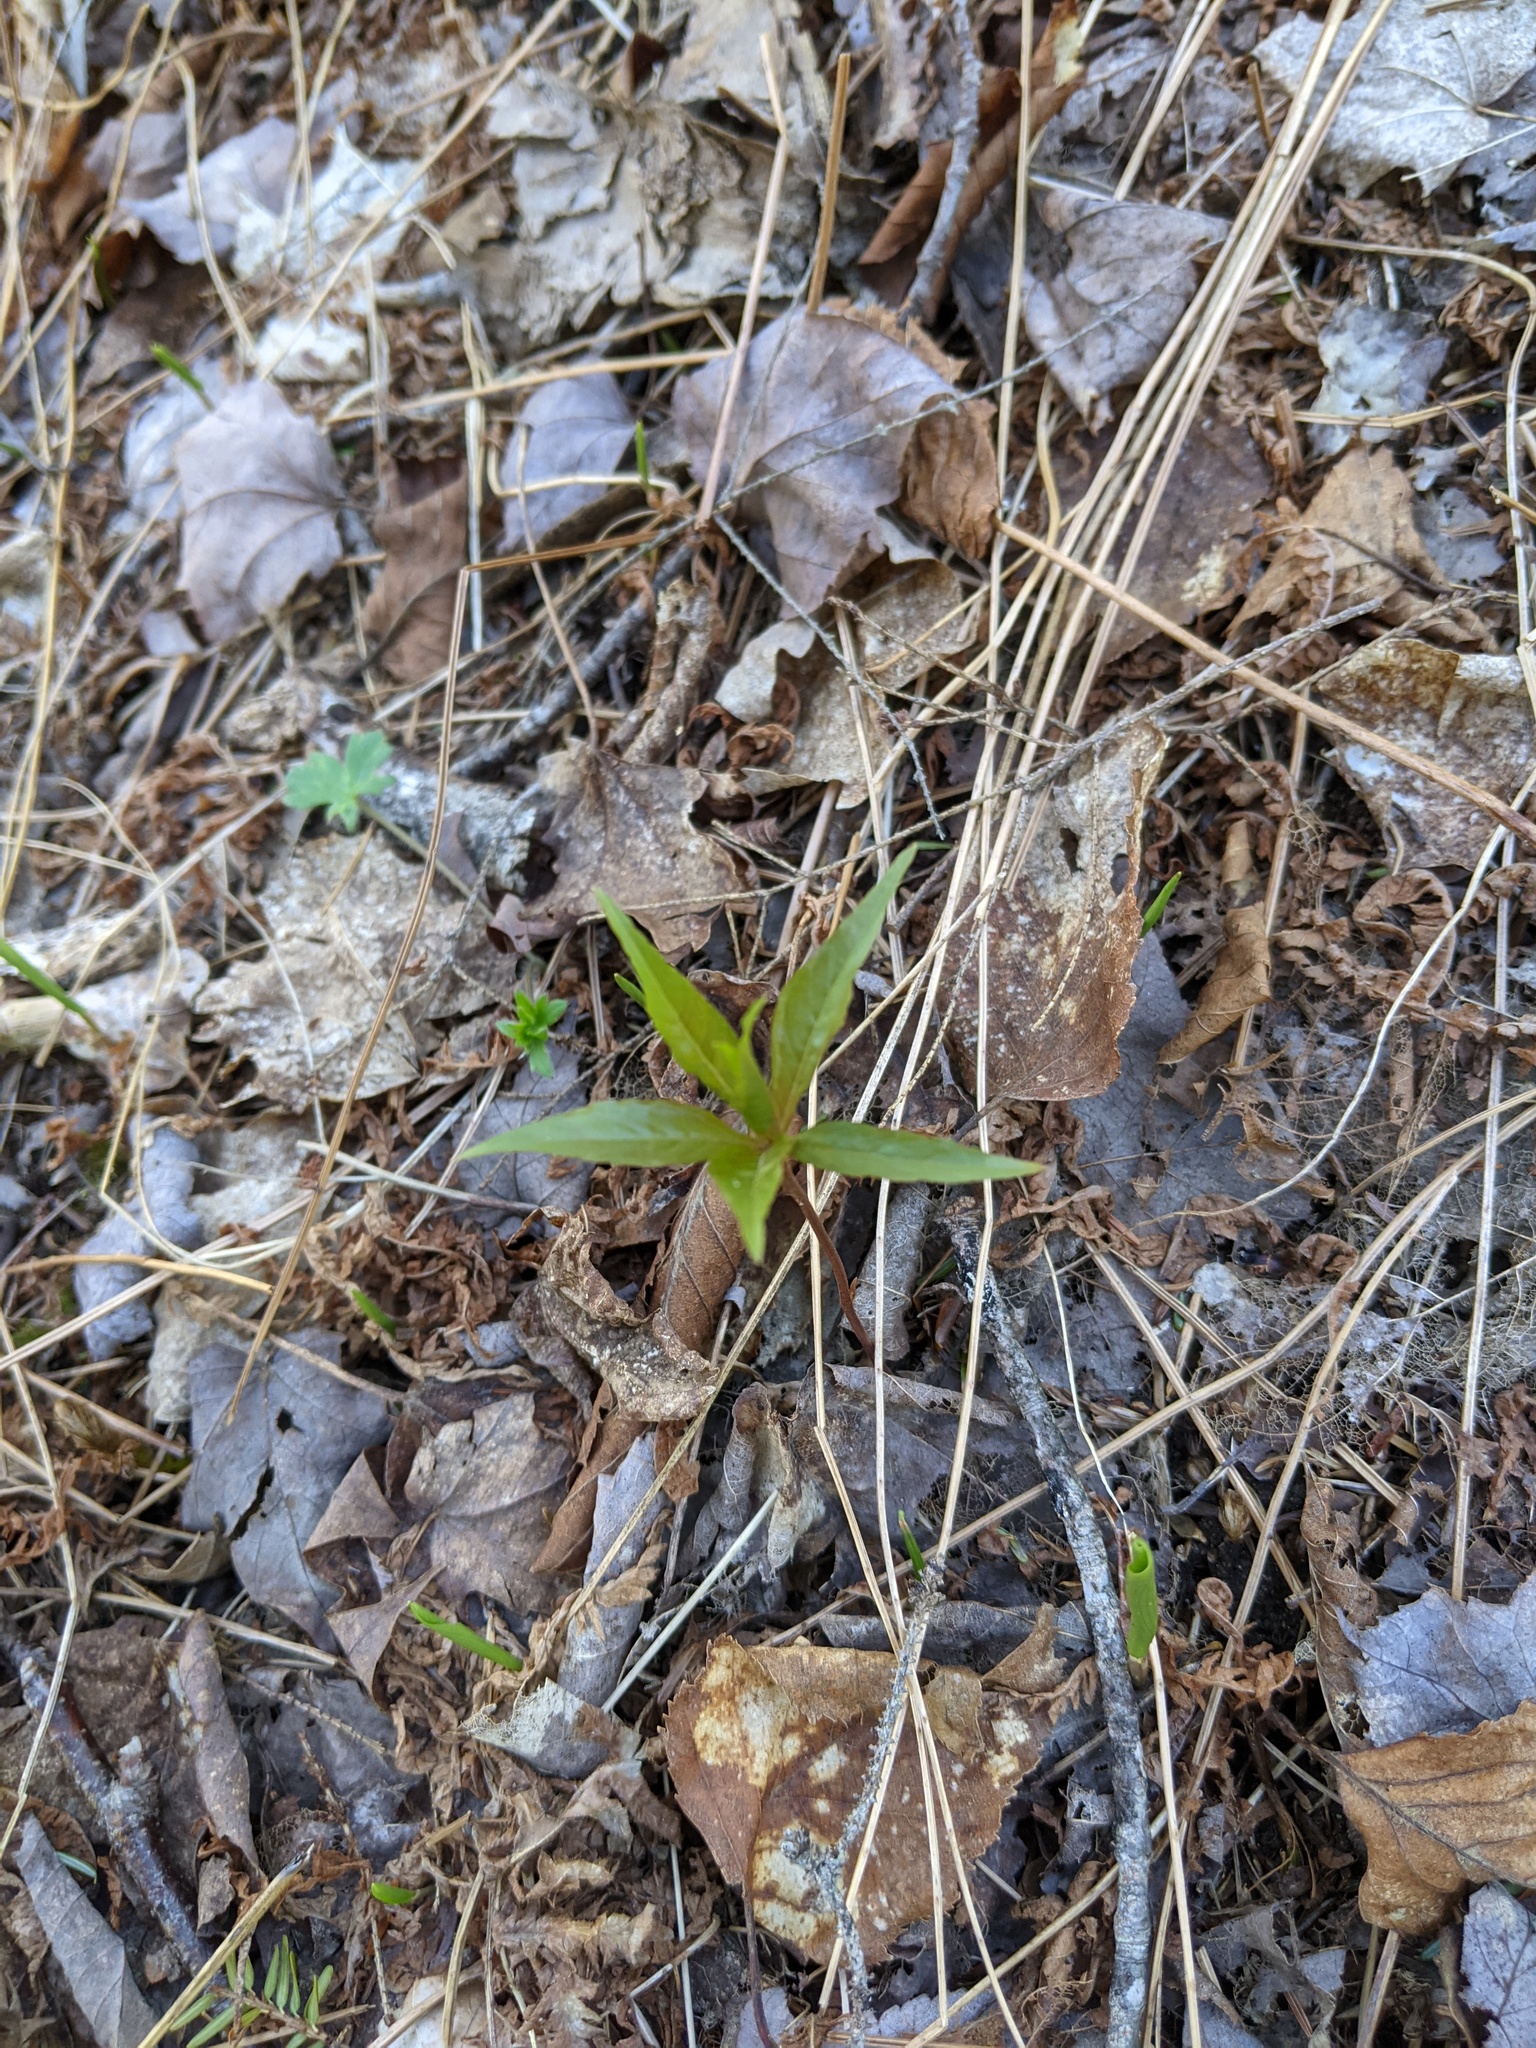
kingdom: Plantae
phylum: Tracheophyta
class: Magnoliopsida
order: Ericales
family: Primulaceae
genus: Lysimachia
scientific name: Lysimachia borealis
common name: American starflower
